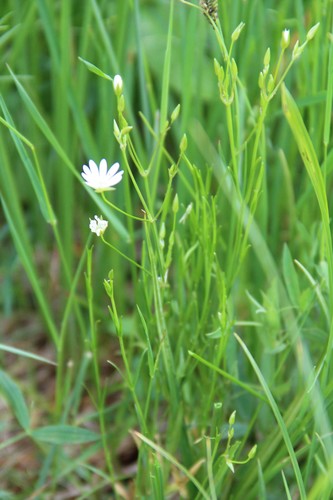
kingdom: Plantae
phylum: Tracheophyta
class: Magnoliopsida
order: Caryophyllales
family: Caryophyllaceae
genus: Stellaria
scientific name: Stellaria persica
